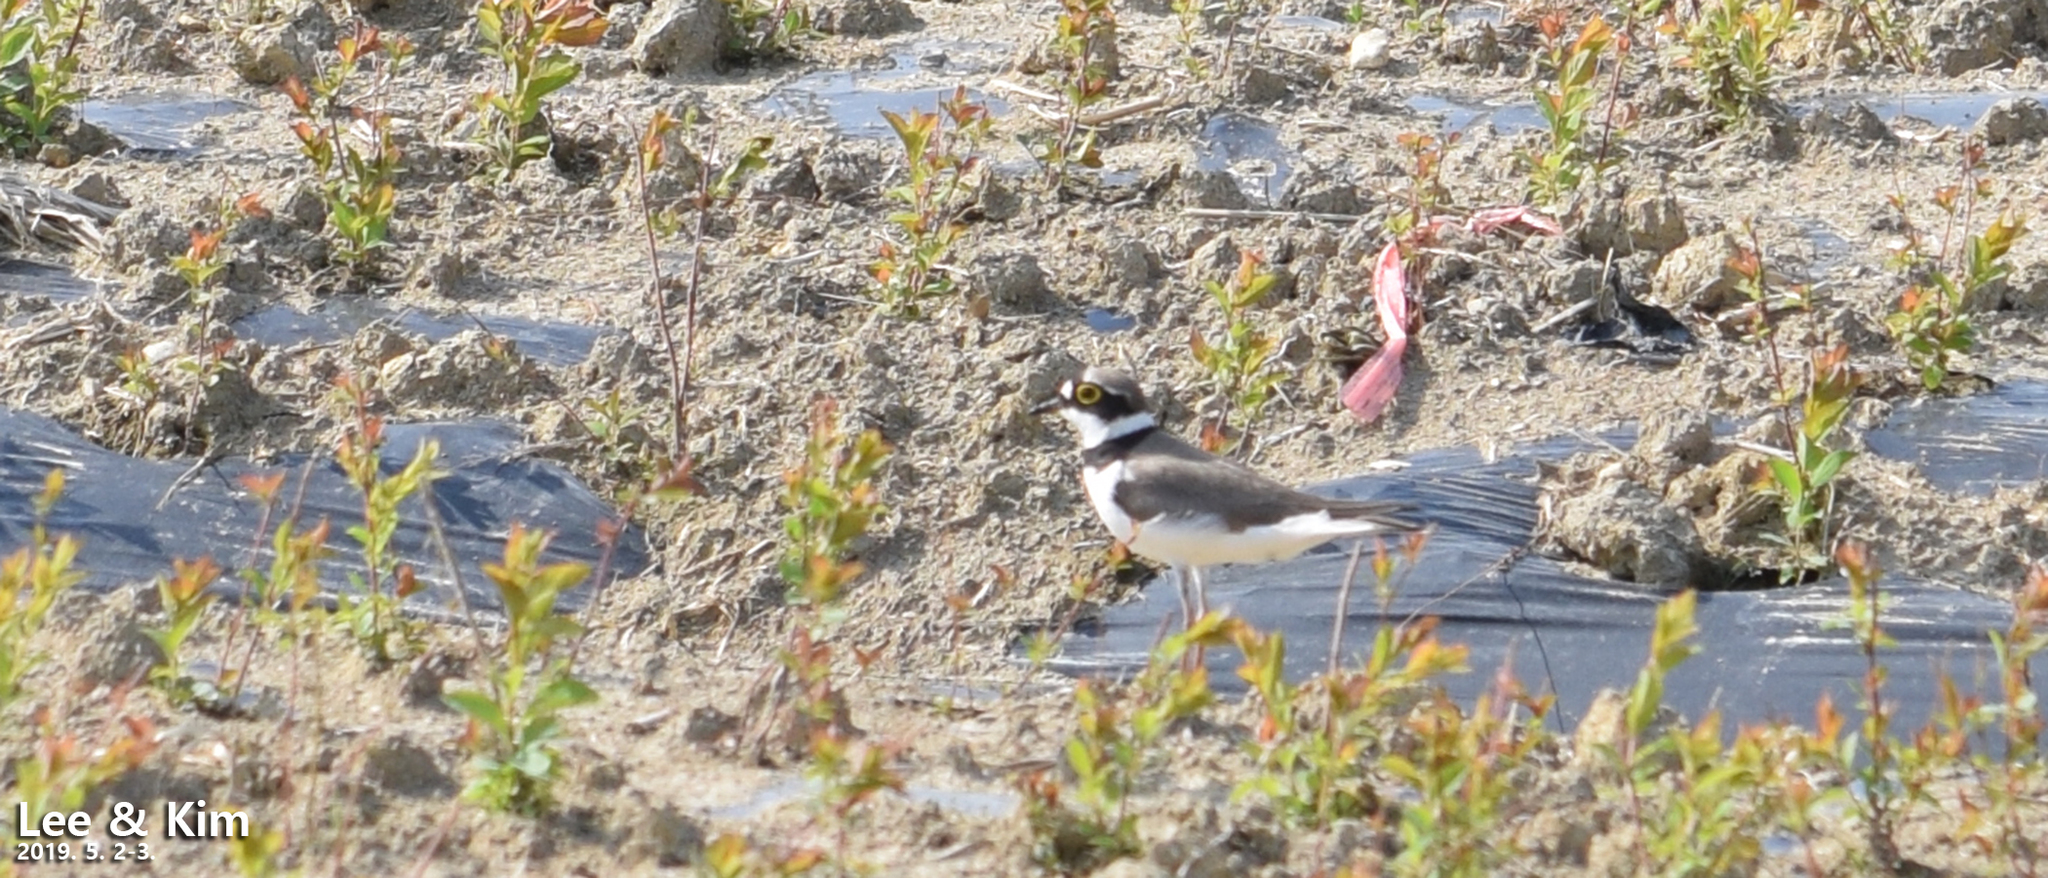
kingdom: Animalia
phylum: Chordata
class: Aves
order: Charadriiformes
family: Charadriidae
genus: Charadrius
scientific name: Charadrius dubius
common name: Little ringed plover
